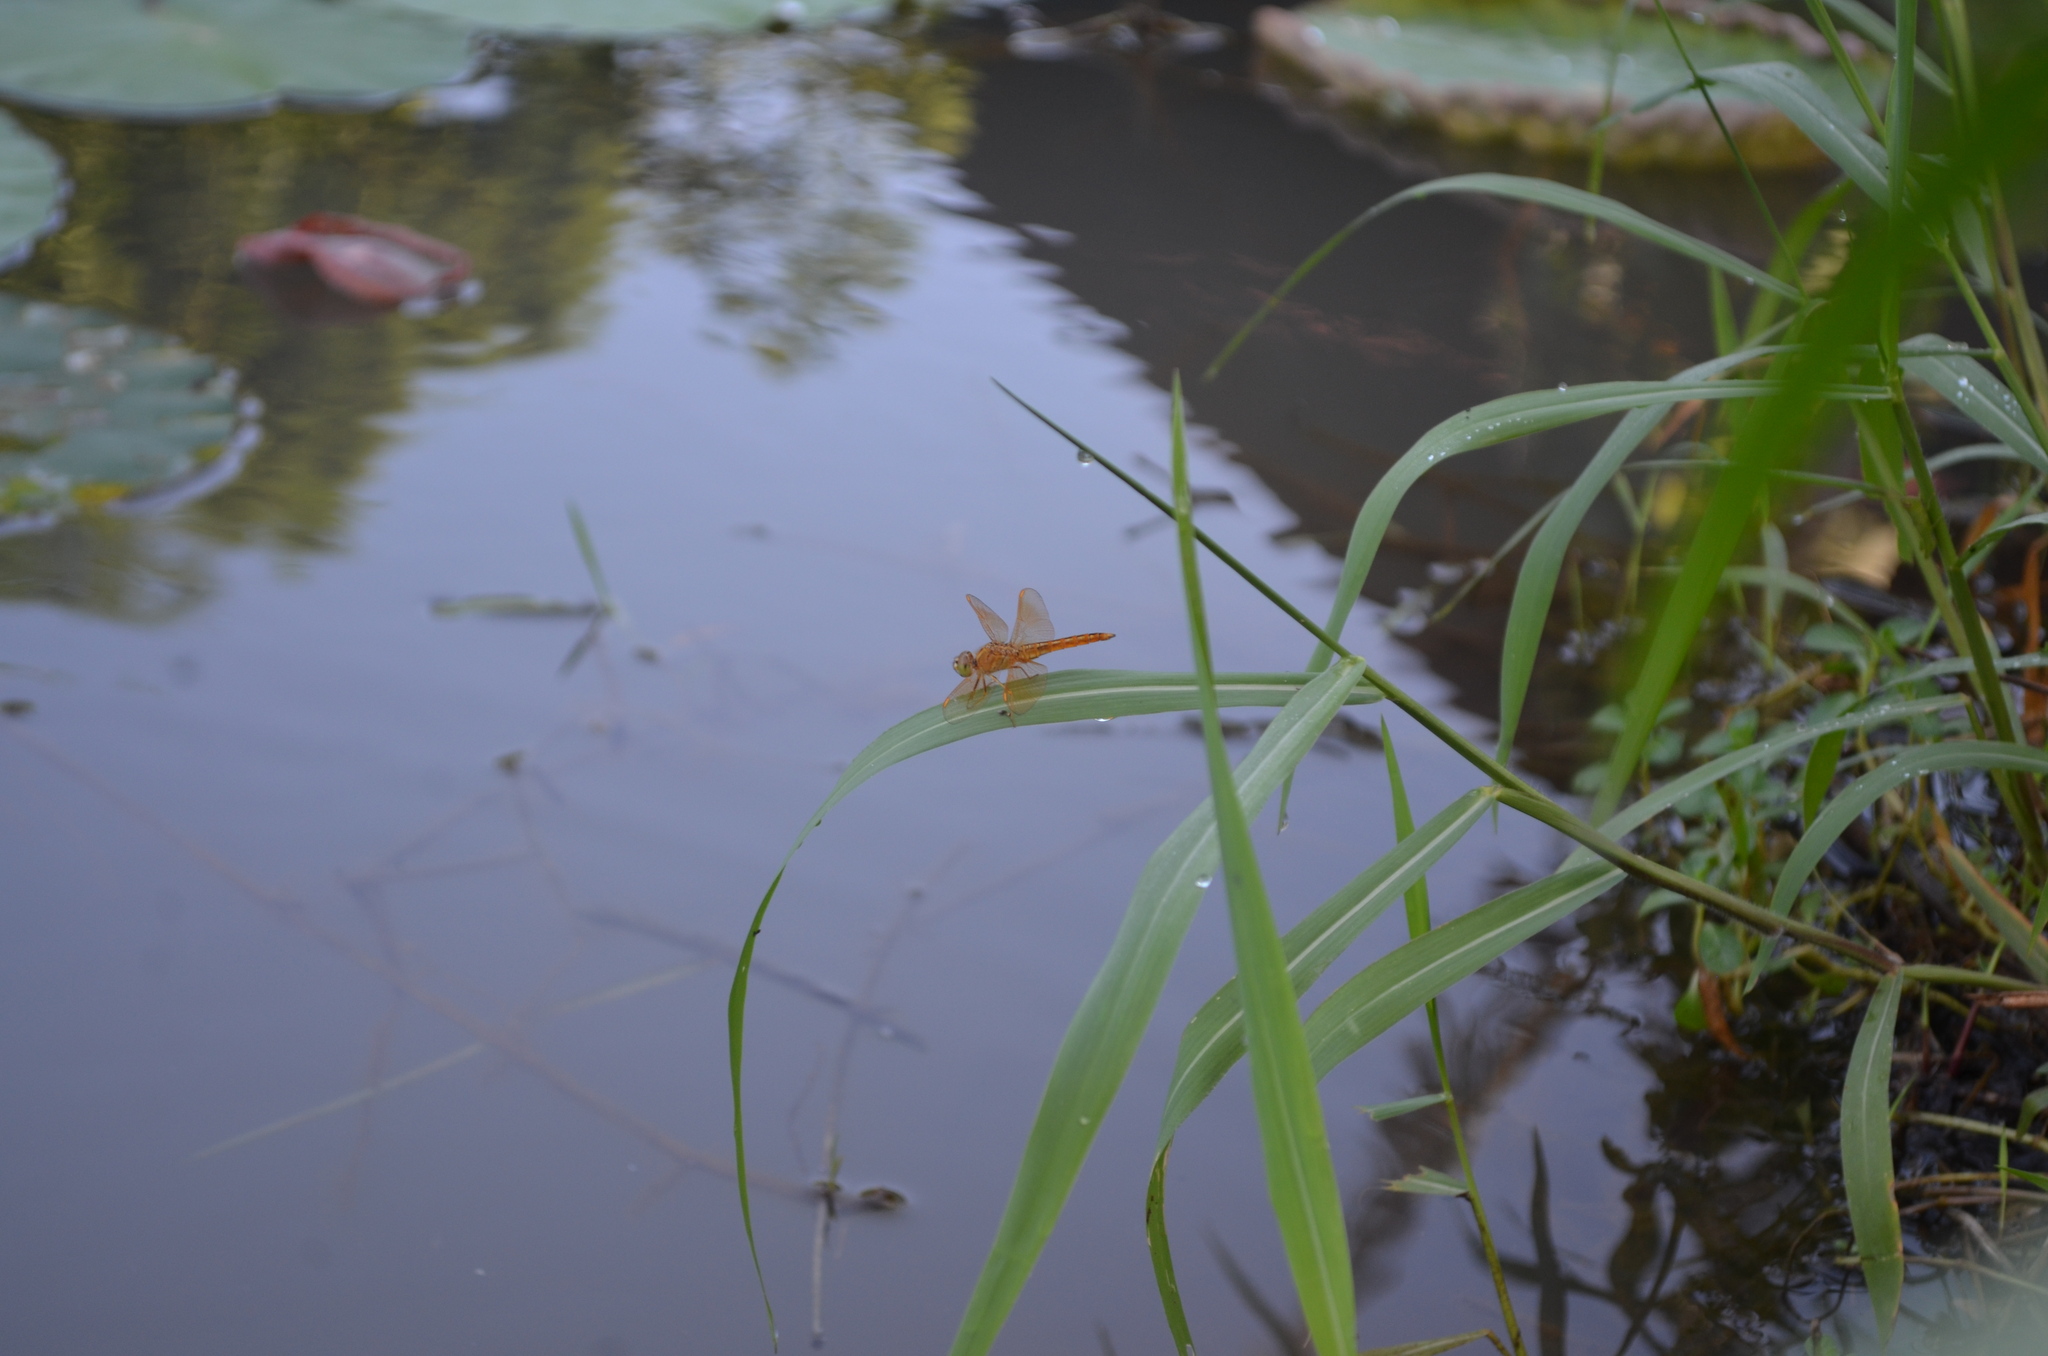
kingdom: Animalia
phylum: Arthropoda
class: Insecta
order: Odonata
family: Libellulidae
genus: Brachythemis
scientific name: Brachythemis contaminata
